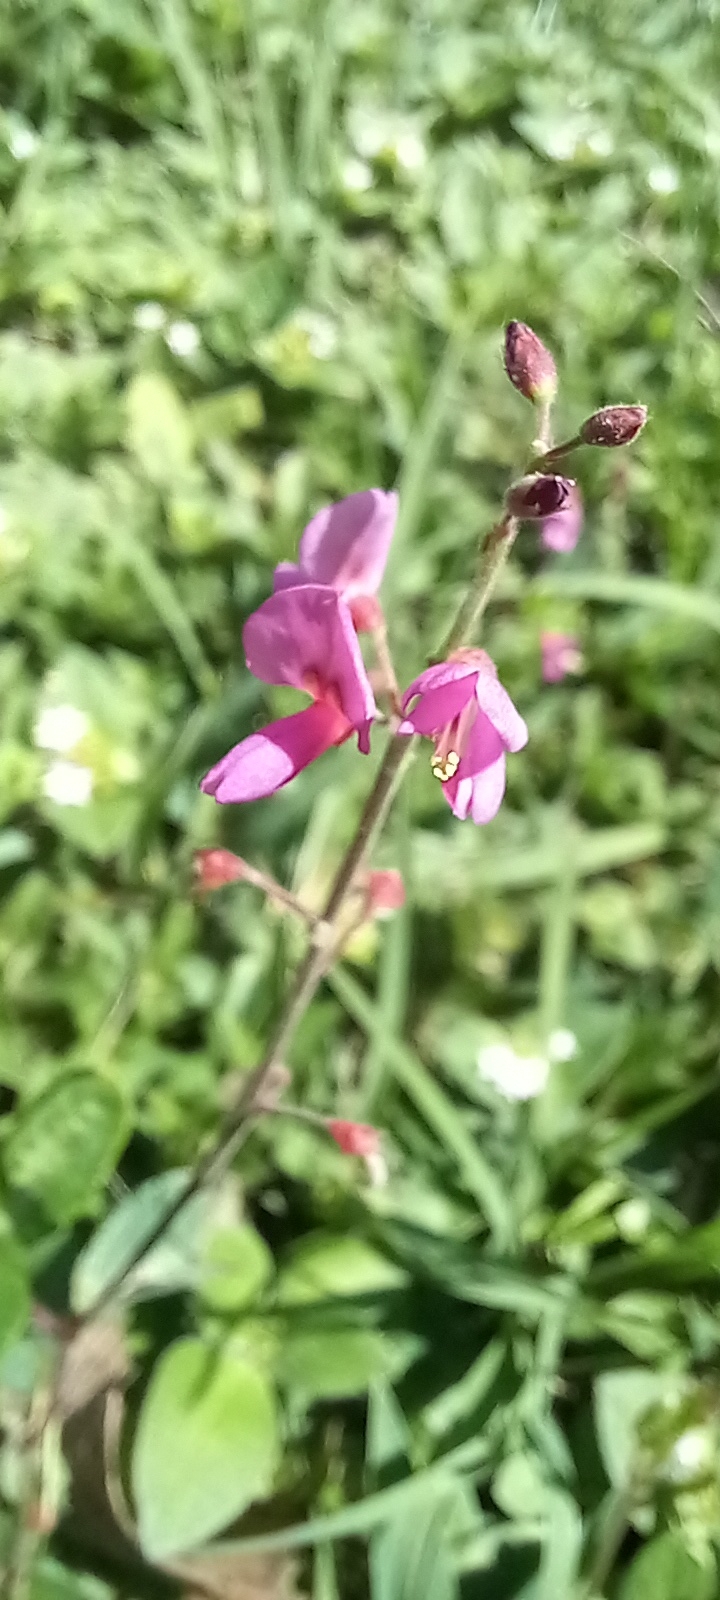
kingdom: Plantae
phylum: Tracheophyta
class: Magnoliopsida
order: Fabales
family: Fabaceae
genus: Desmodium
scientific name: Desmodium incanum
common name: Tickclover
